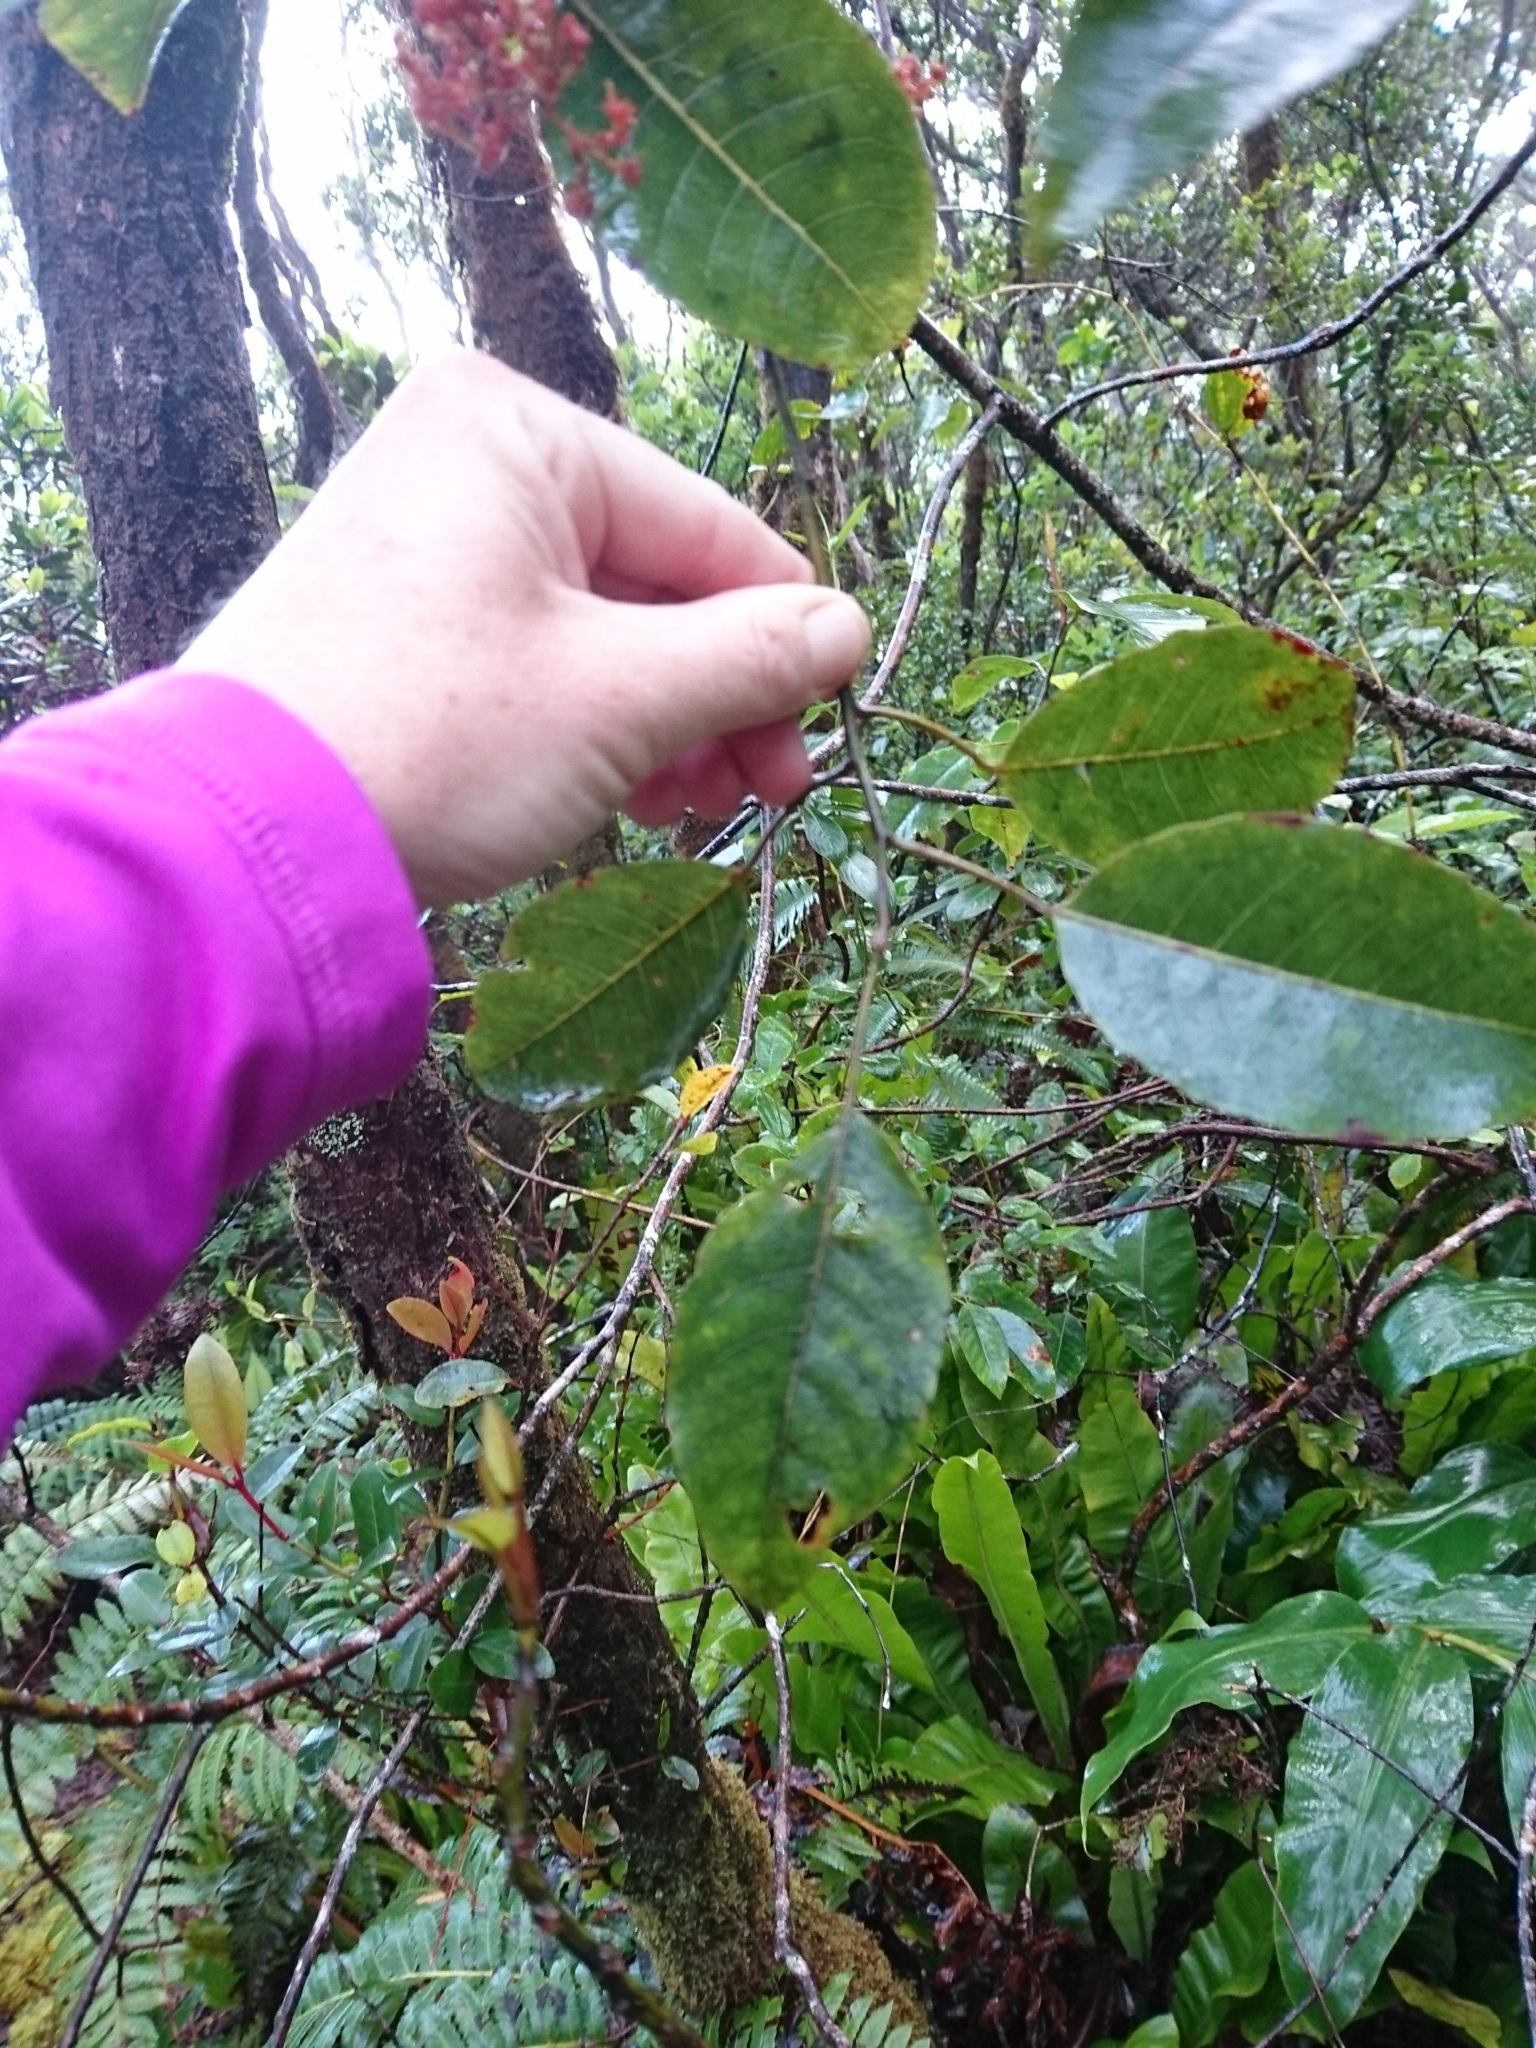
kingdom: Plantae
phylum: Tracheophyta
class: Magnoliopsida
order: Oxalidales
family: Elaeocarpaceae
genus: Elaeocarpus
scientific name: Elaeocarpus bifidus
